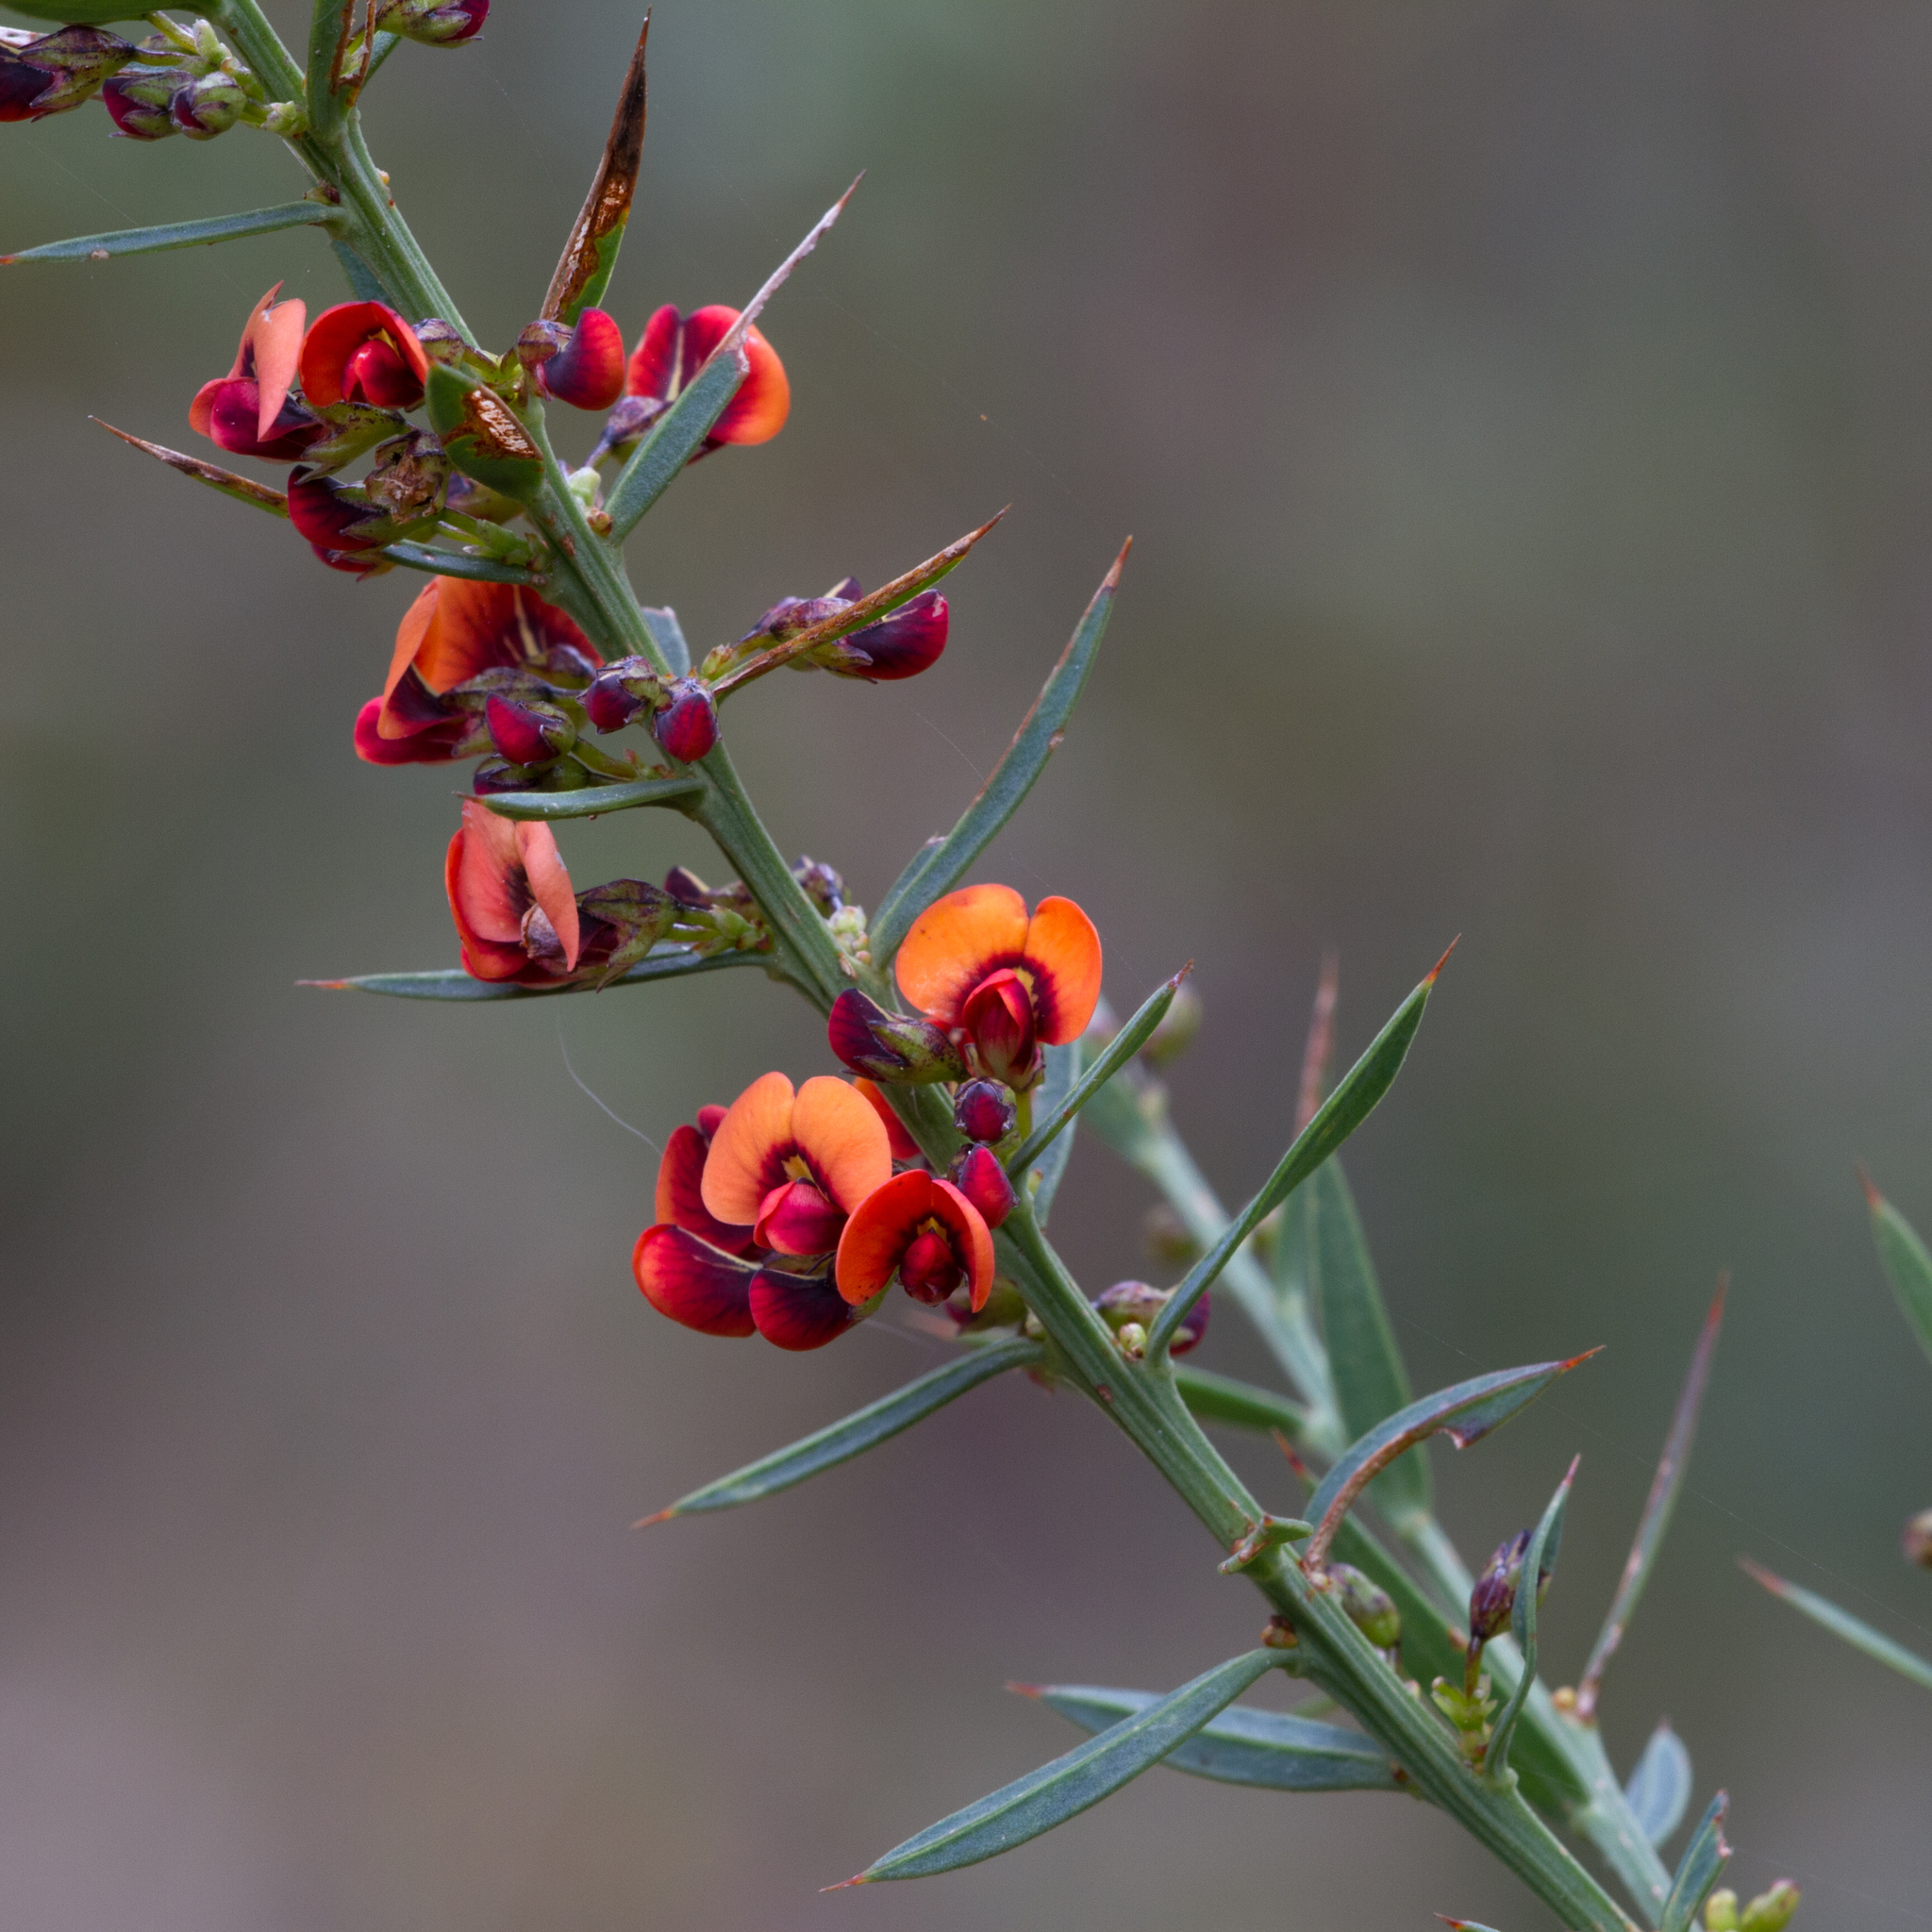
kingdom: Plantae
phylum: Tracheophyta
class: Magnoliopsida
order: Fabales
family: Fabaceae
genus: Daviesia
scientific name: Daviesia ulicifolia
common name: Gorse bitter-pea
